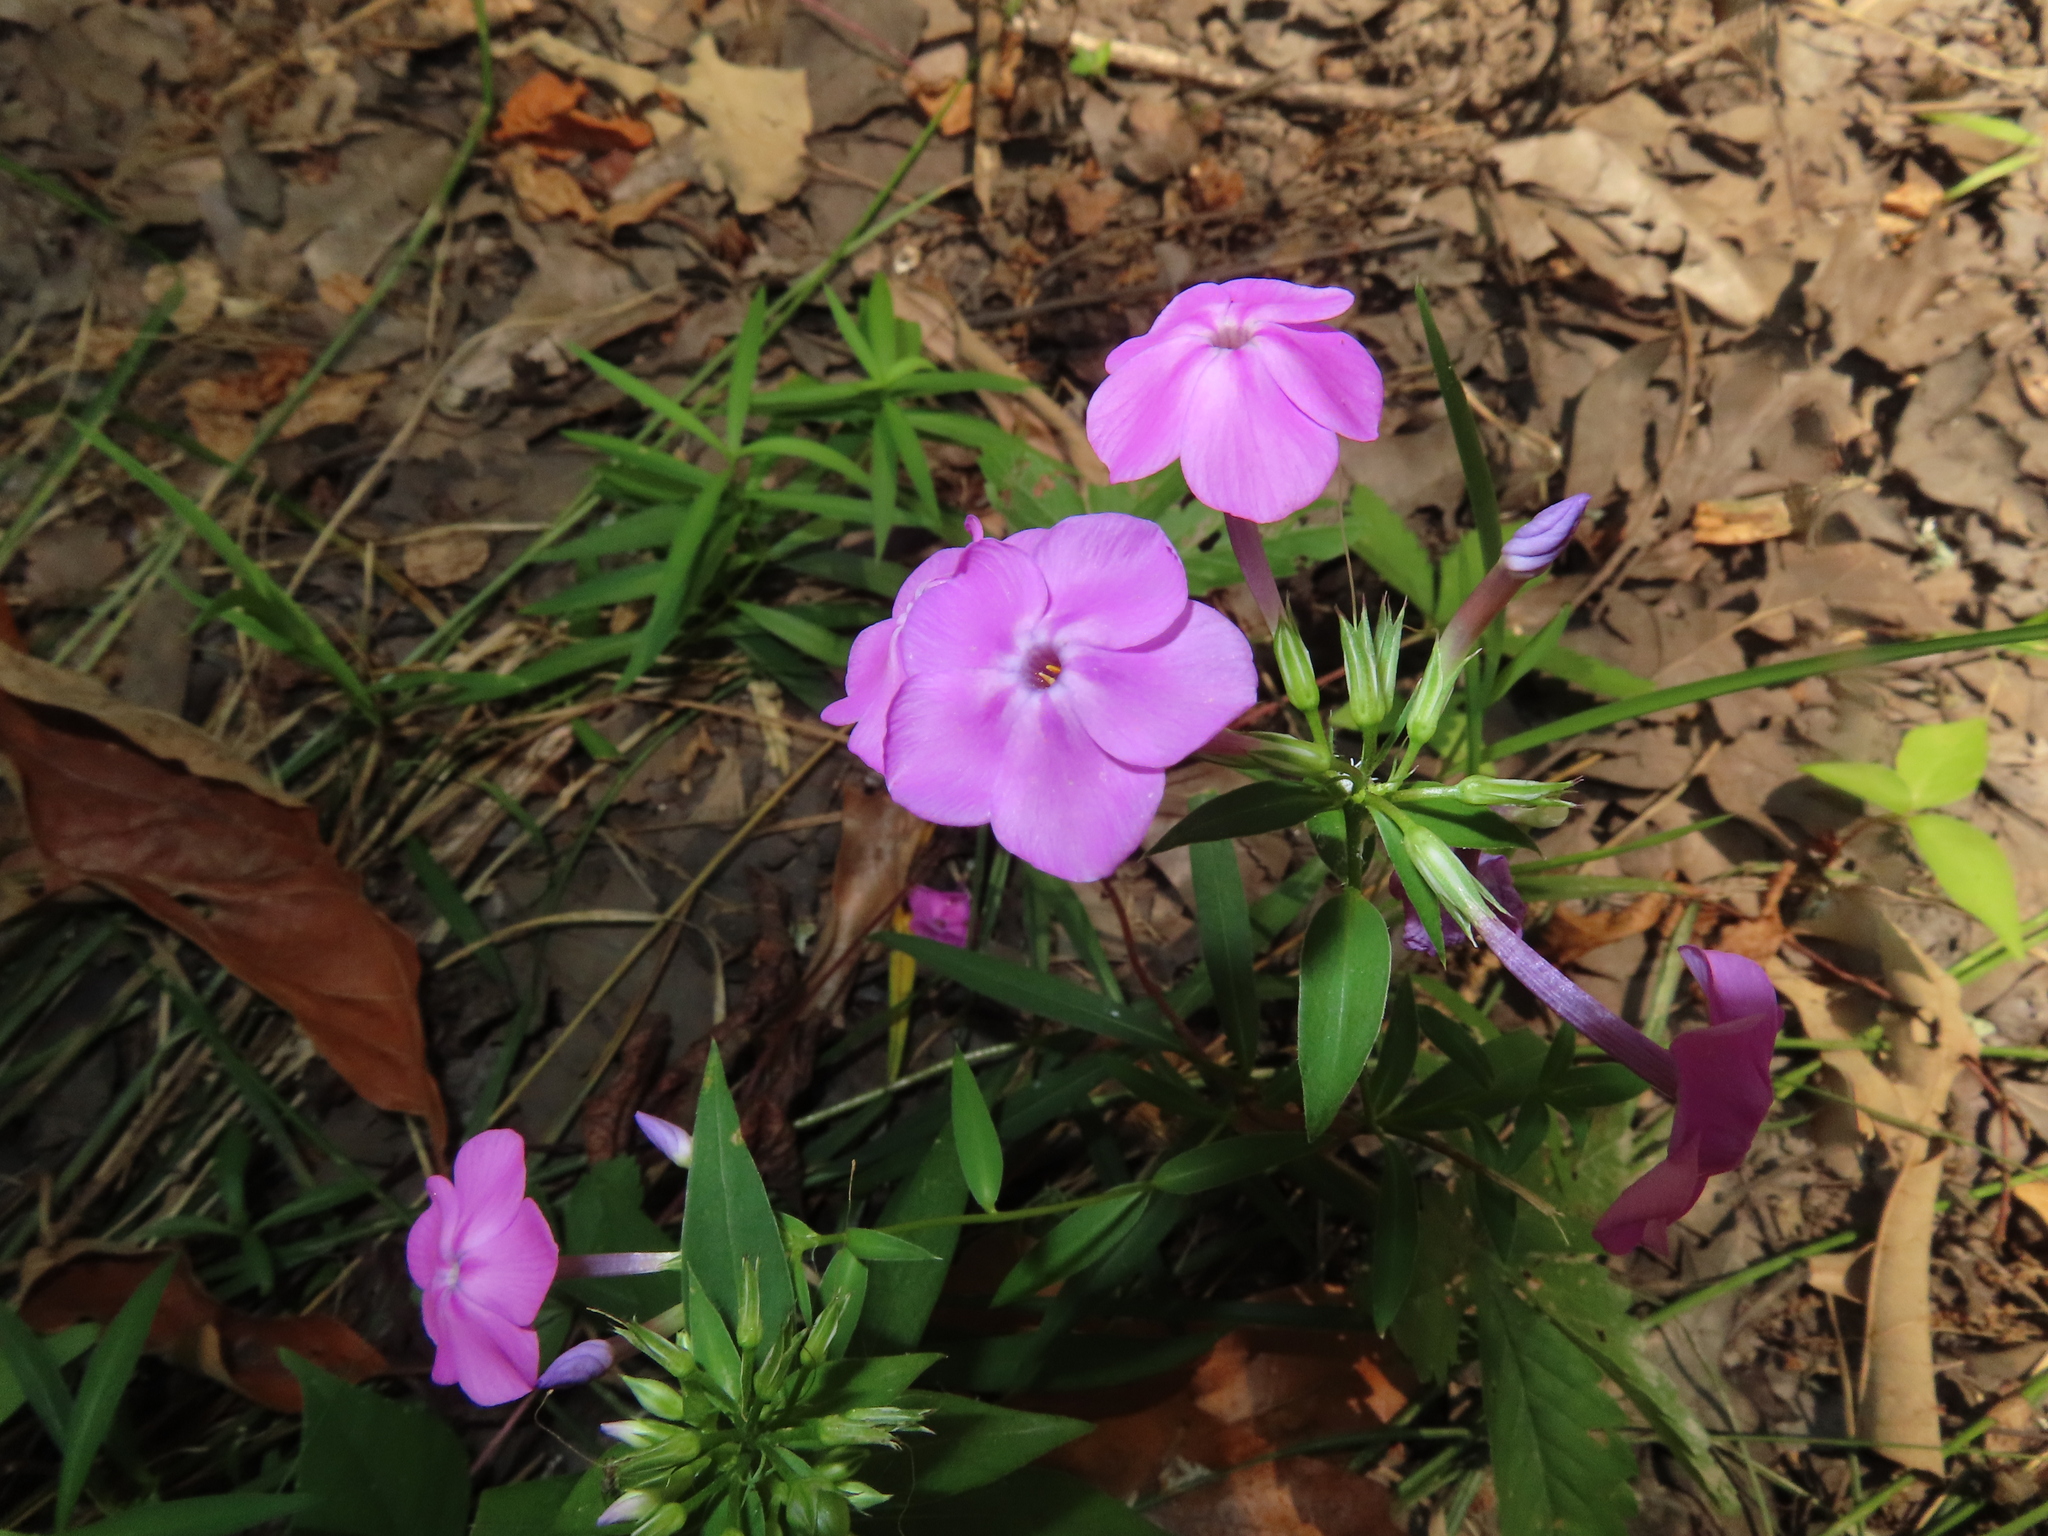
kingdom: Plantae
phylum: Tracheophyta
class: Magnoliopsida
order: Ericales
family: Polemoniaceae
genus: Phlox
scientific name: Phlox glaberrima
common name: Smooth phlox
